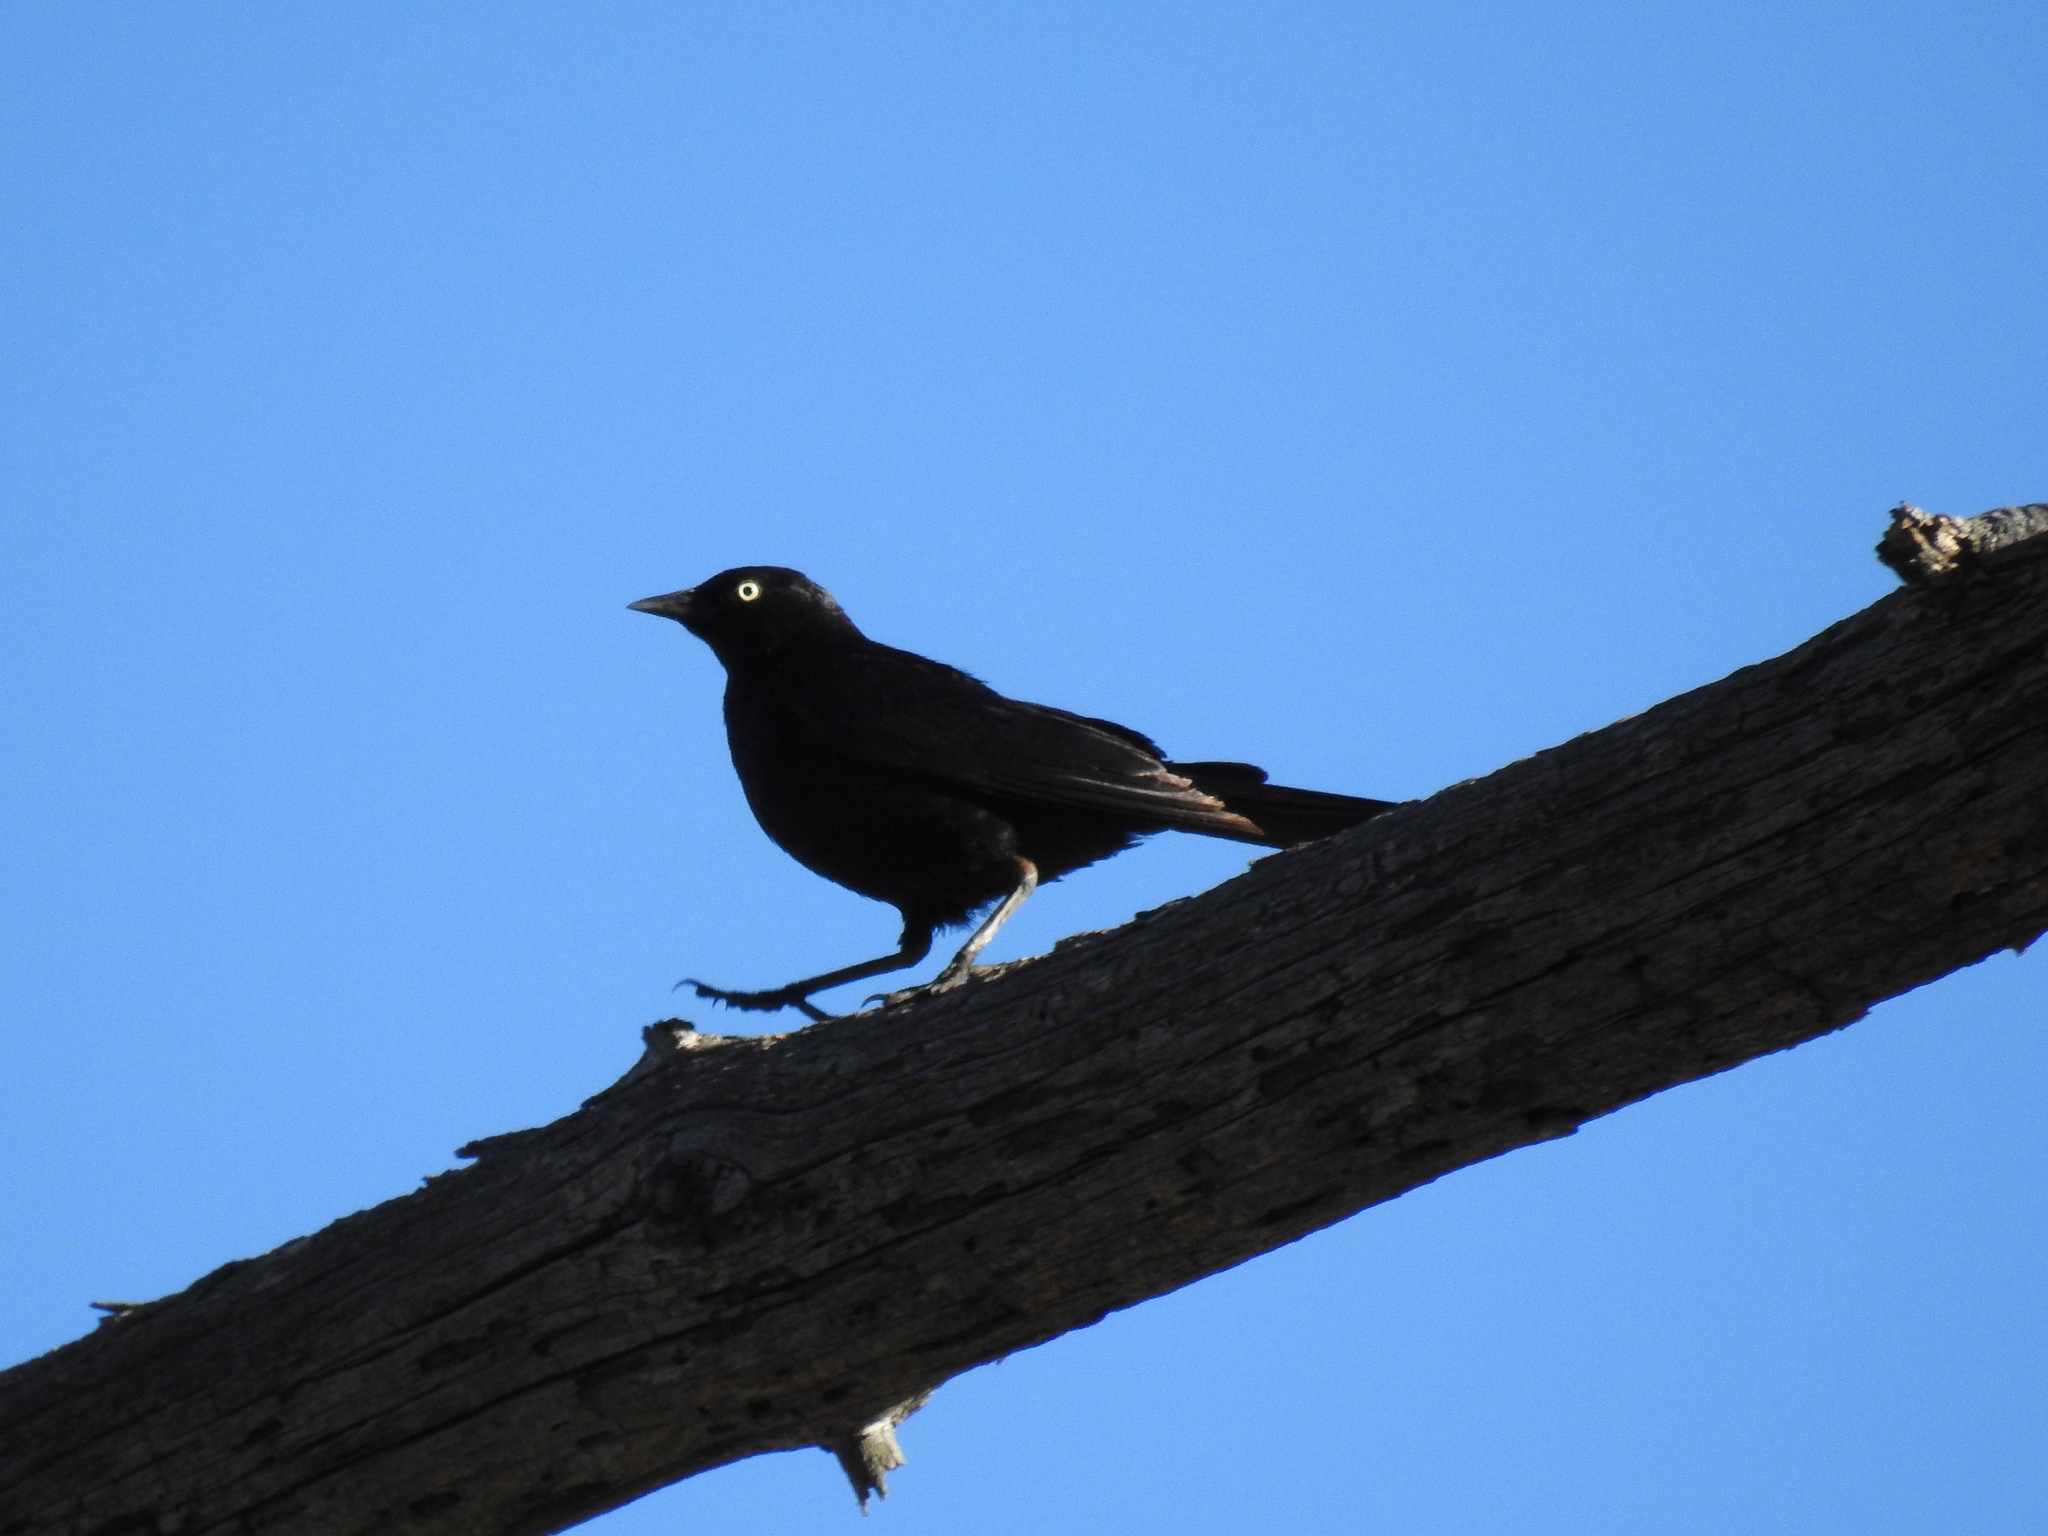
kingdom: Animalia
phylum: Chordata
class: Aves
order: Passeriformes
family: Icteridae
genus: Euphagus
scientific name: Euphagus cyanocephalus
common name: Brewer's blackbird
